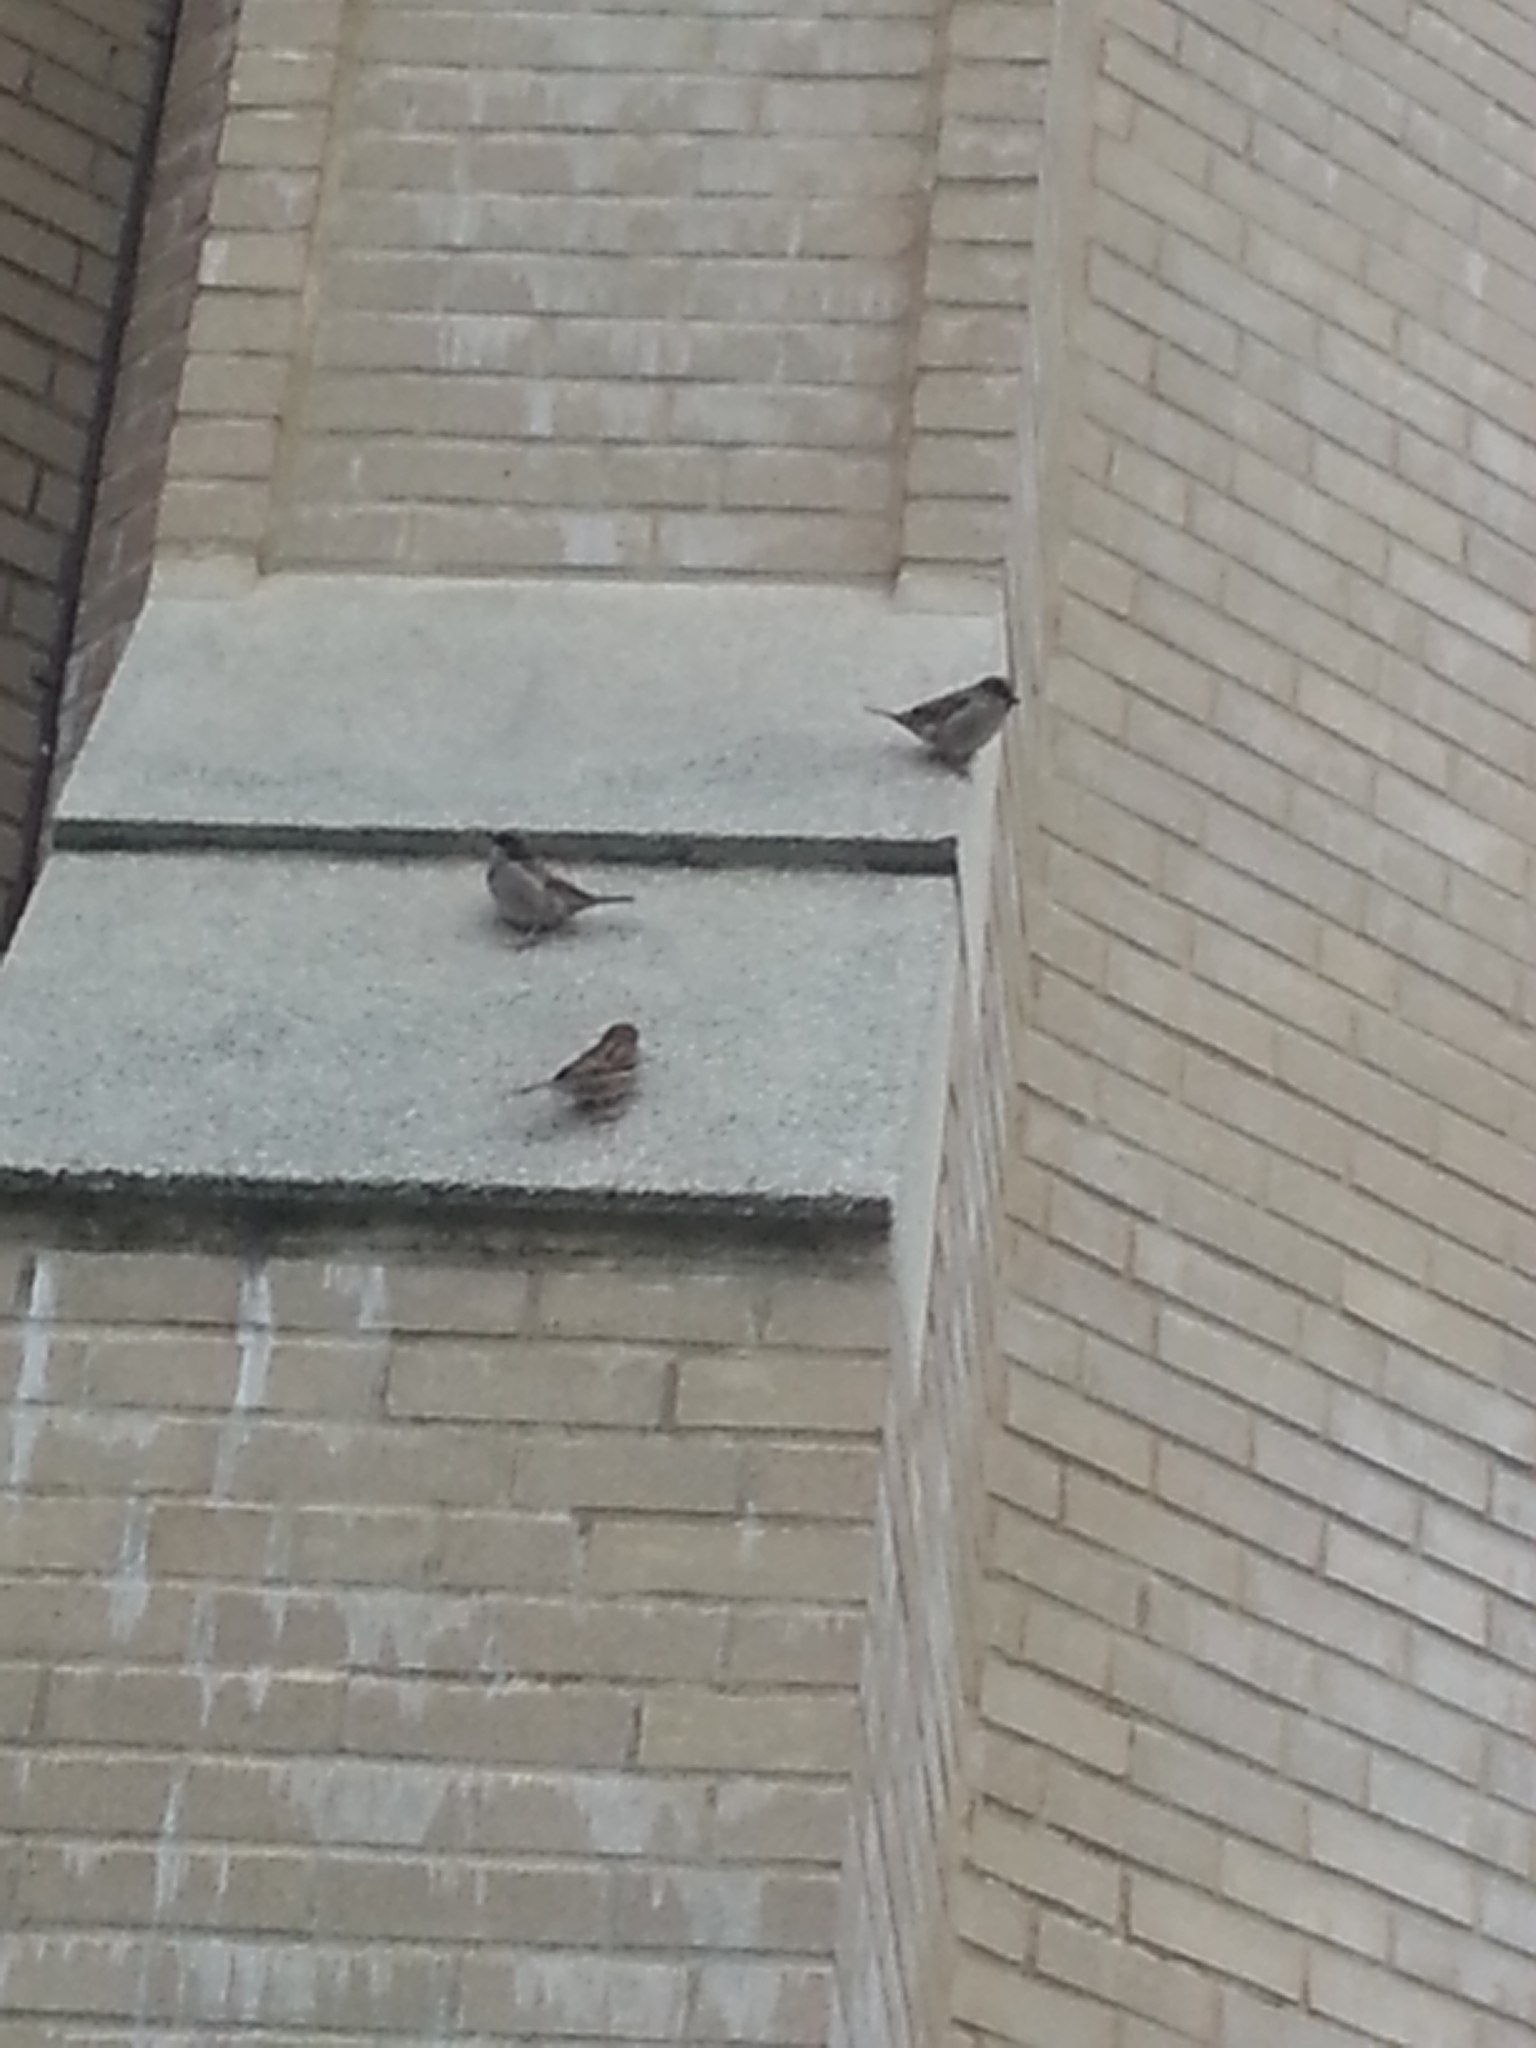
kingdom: Animalia
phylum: Chordata
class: Aves
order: Passeriformes
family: Passeridae
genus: Passer
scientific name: Passer domesticus
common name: House sparrow
